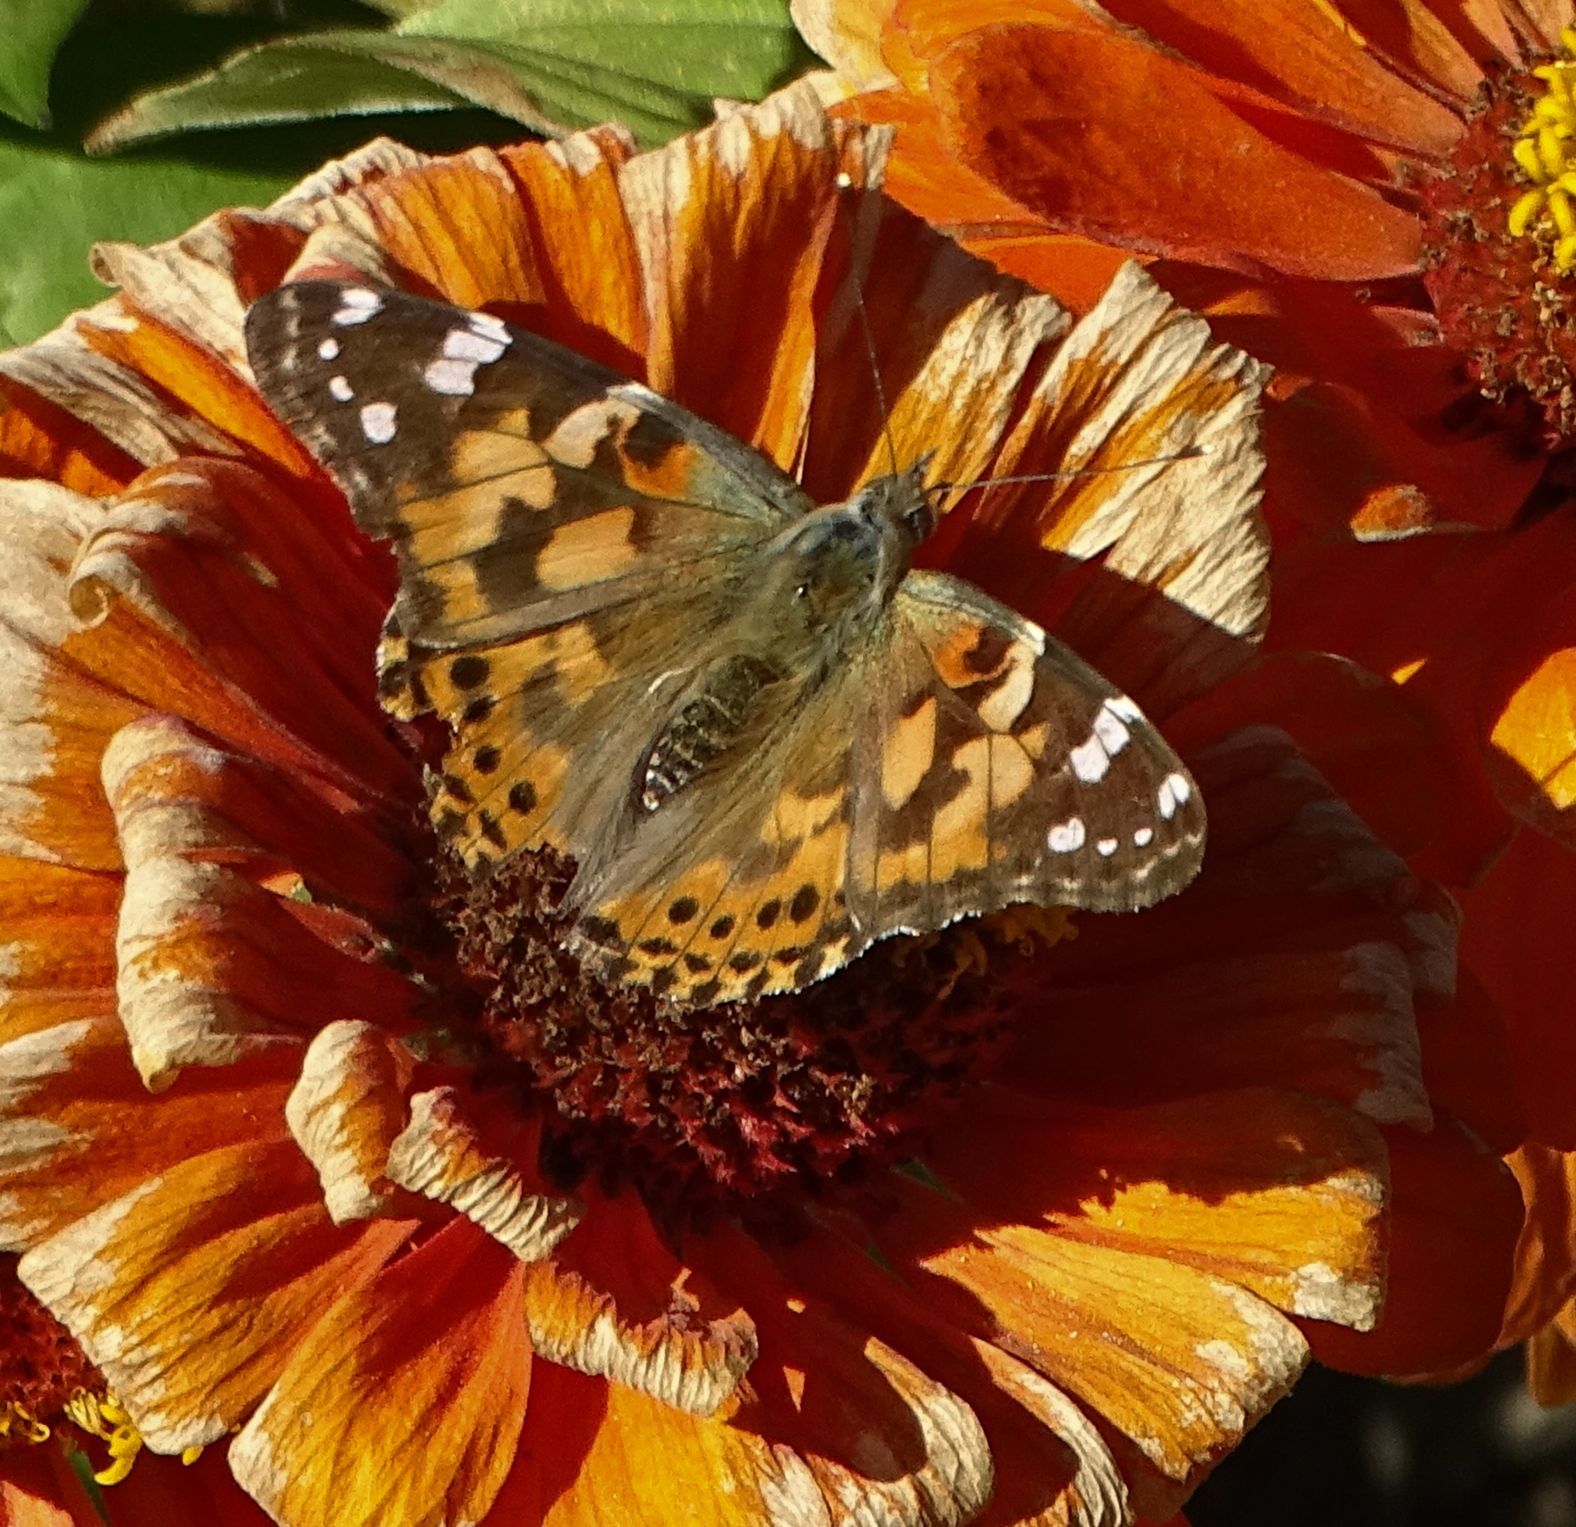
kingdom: Animalia
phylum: Arthropoda
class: Insecta
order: Lepidoptera
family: Nymphalidae
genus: Vanessa
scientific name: Vanessa cardui
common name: Painted lady
